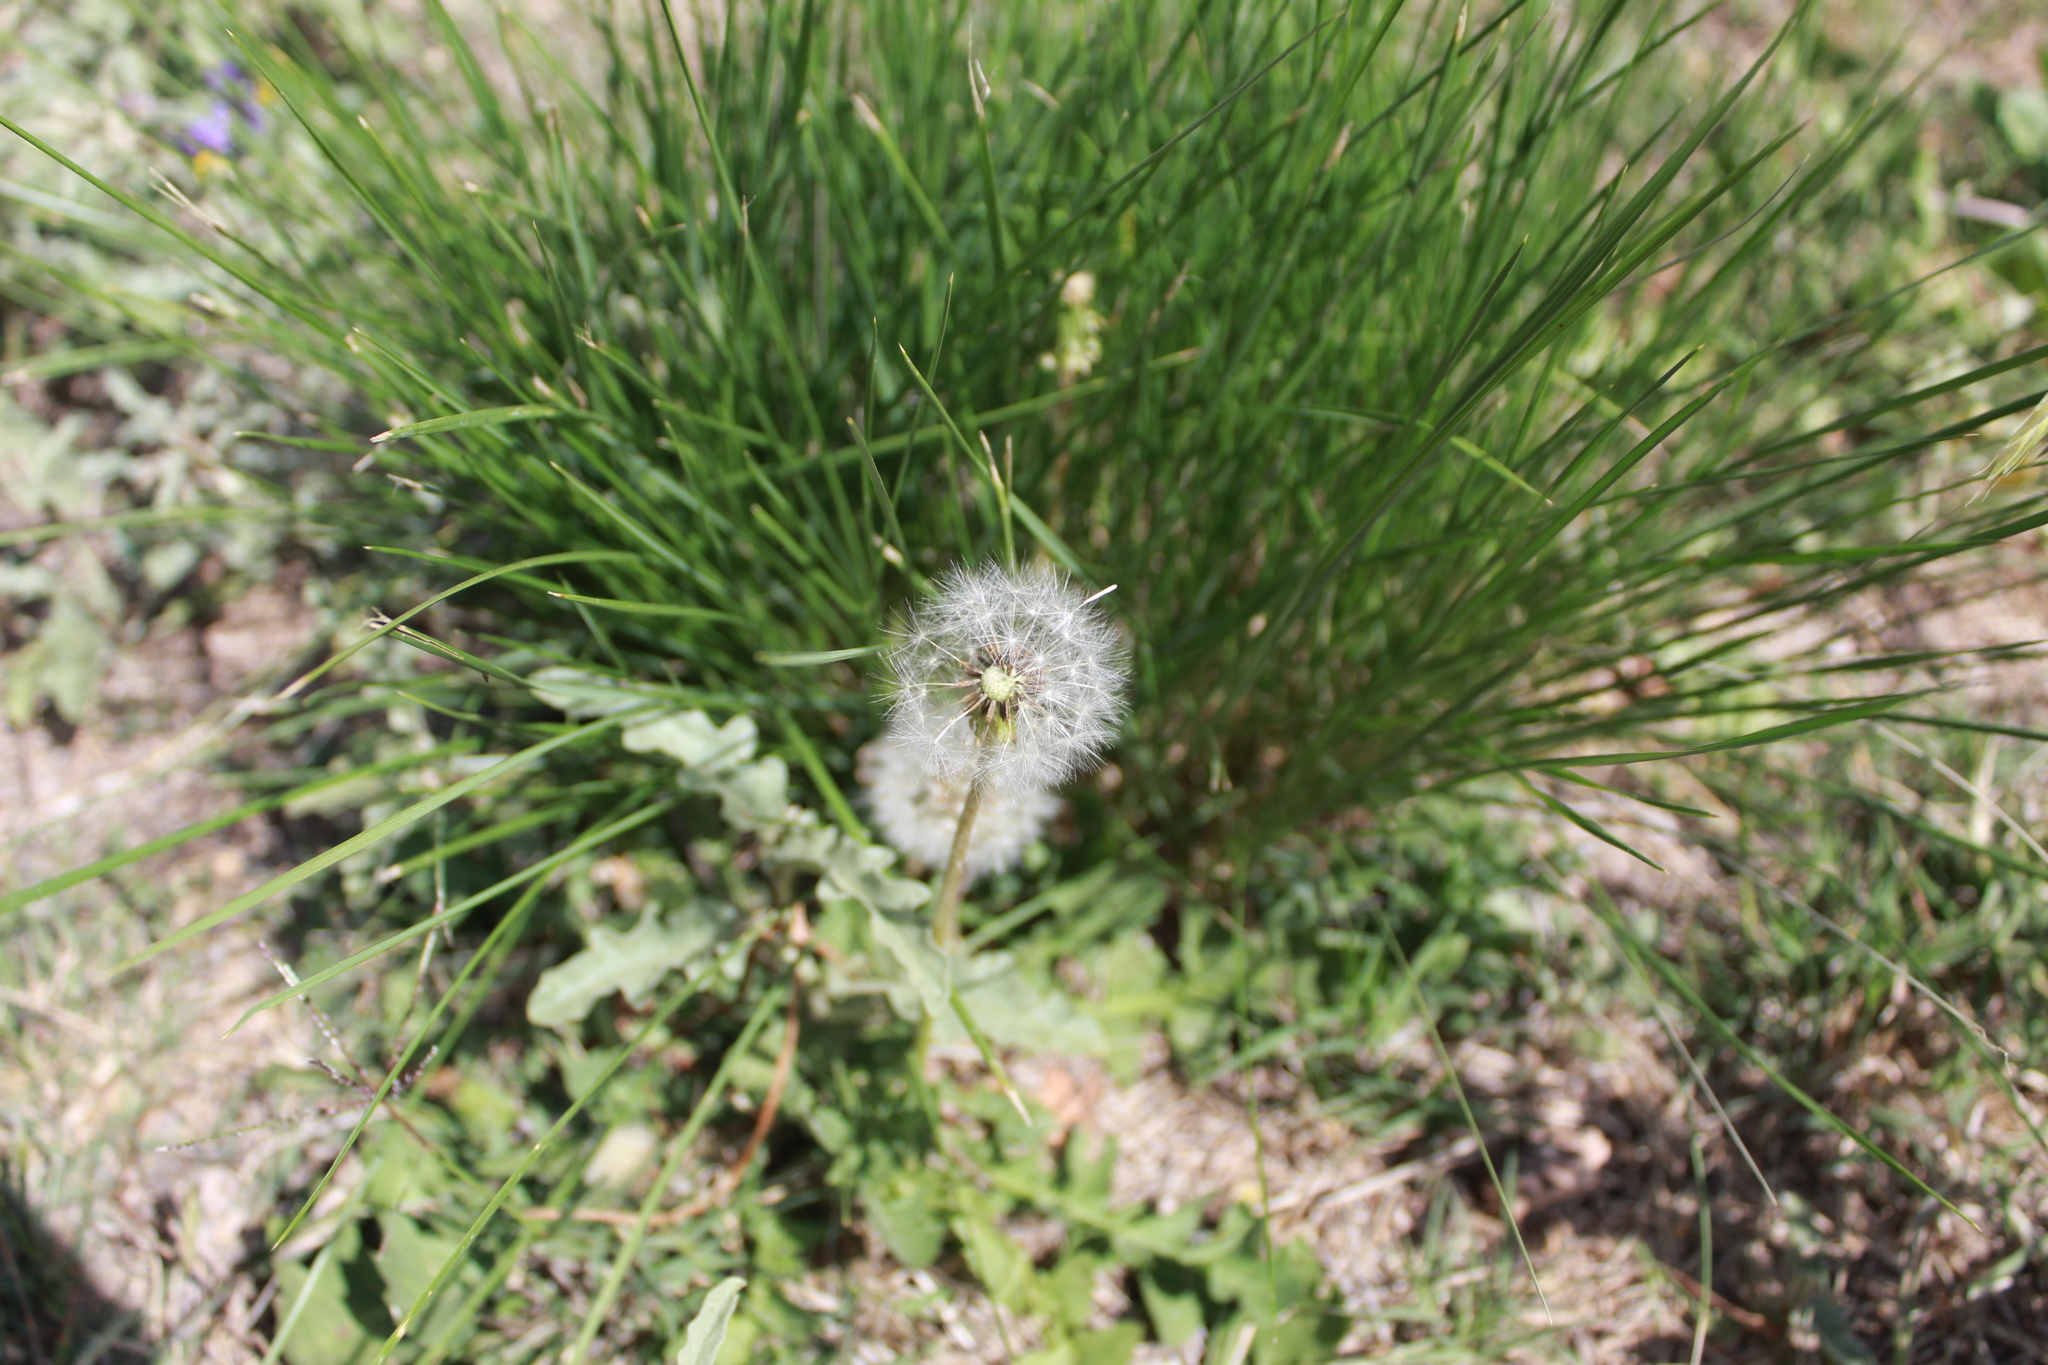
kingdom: Plantae
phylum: Tracheophyta
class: Magnoliopsida
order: Asterales
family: Asteraceae
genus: Taraxacum
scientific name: Taraxacum officinale
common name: Common dandelion
